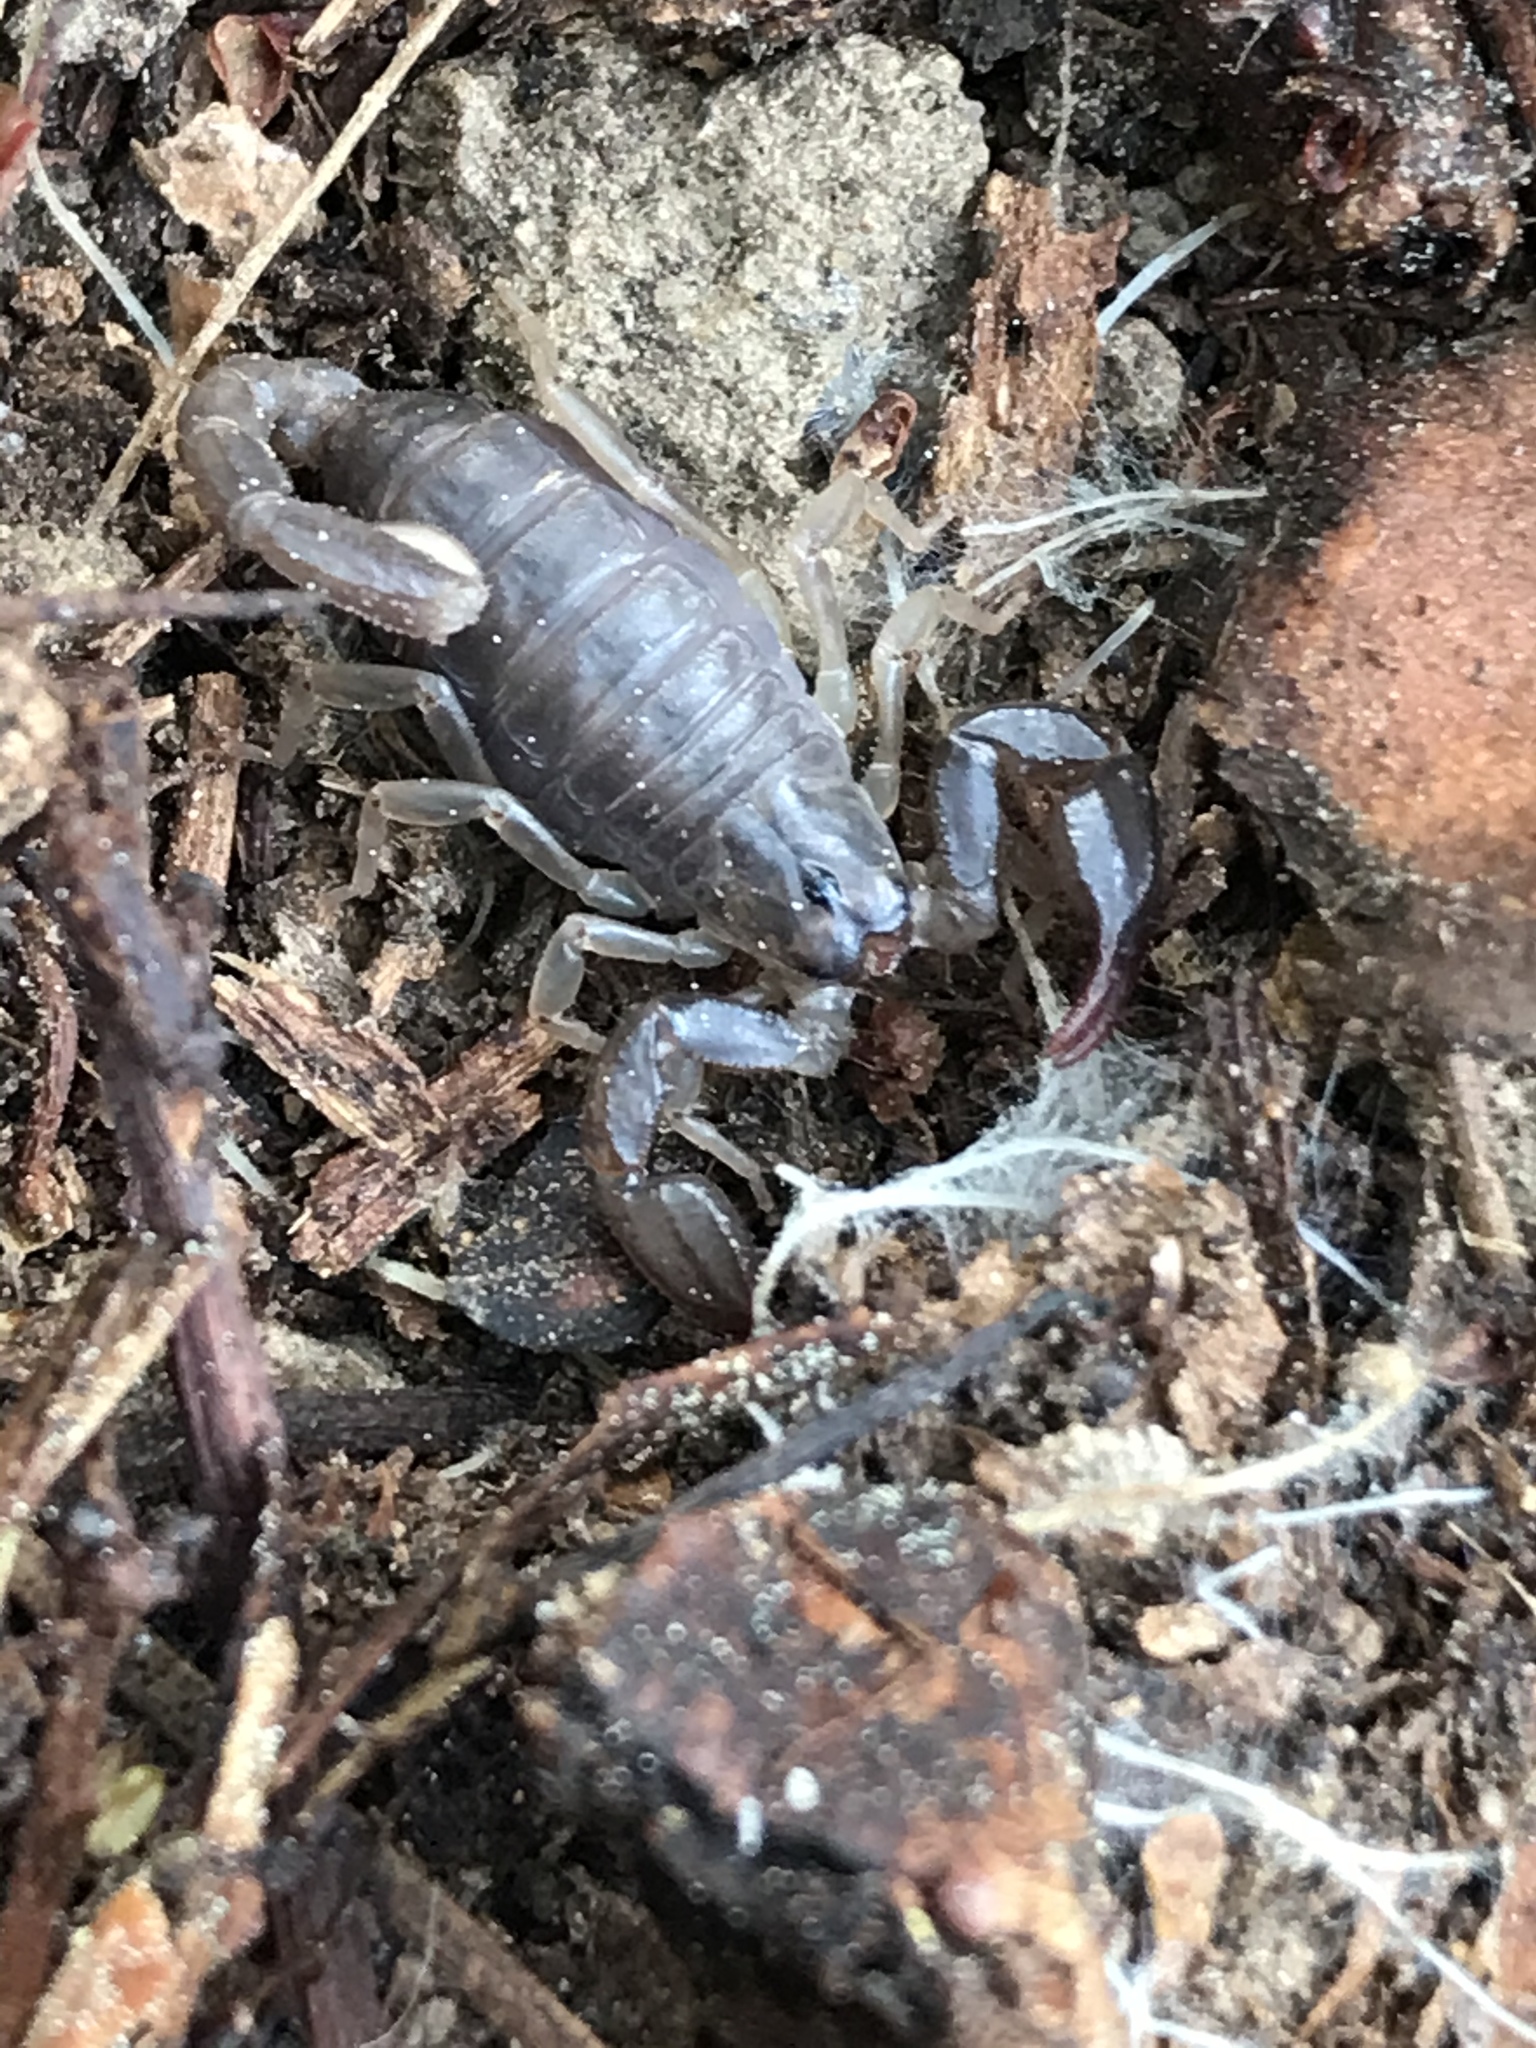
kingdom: Animalia
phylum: Arthropoda
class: Arachnida
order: Scorpiones
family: Chactidae
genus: Uroctonus
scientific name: Uroctonus mordax
